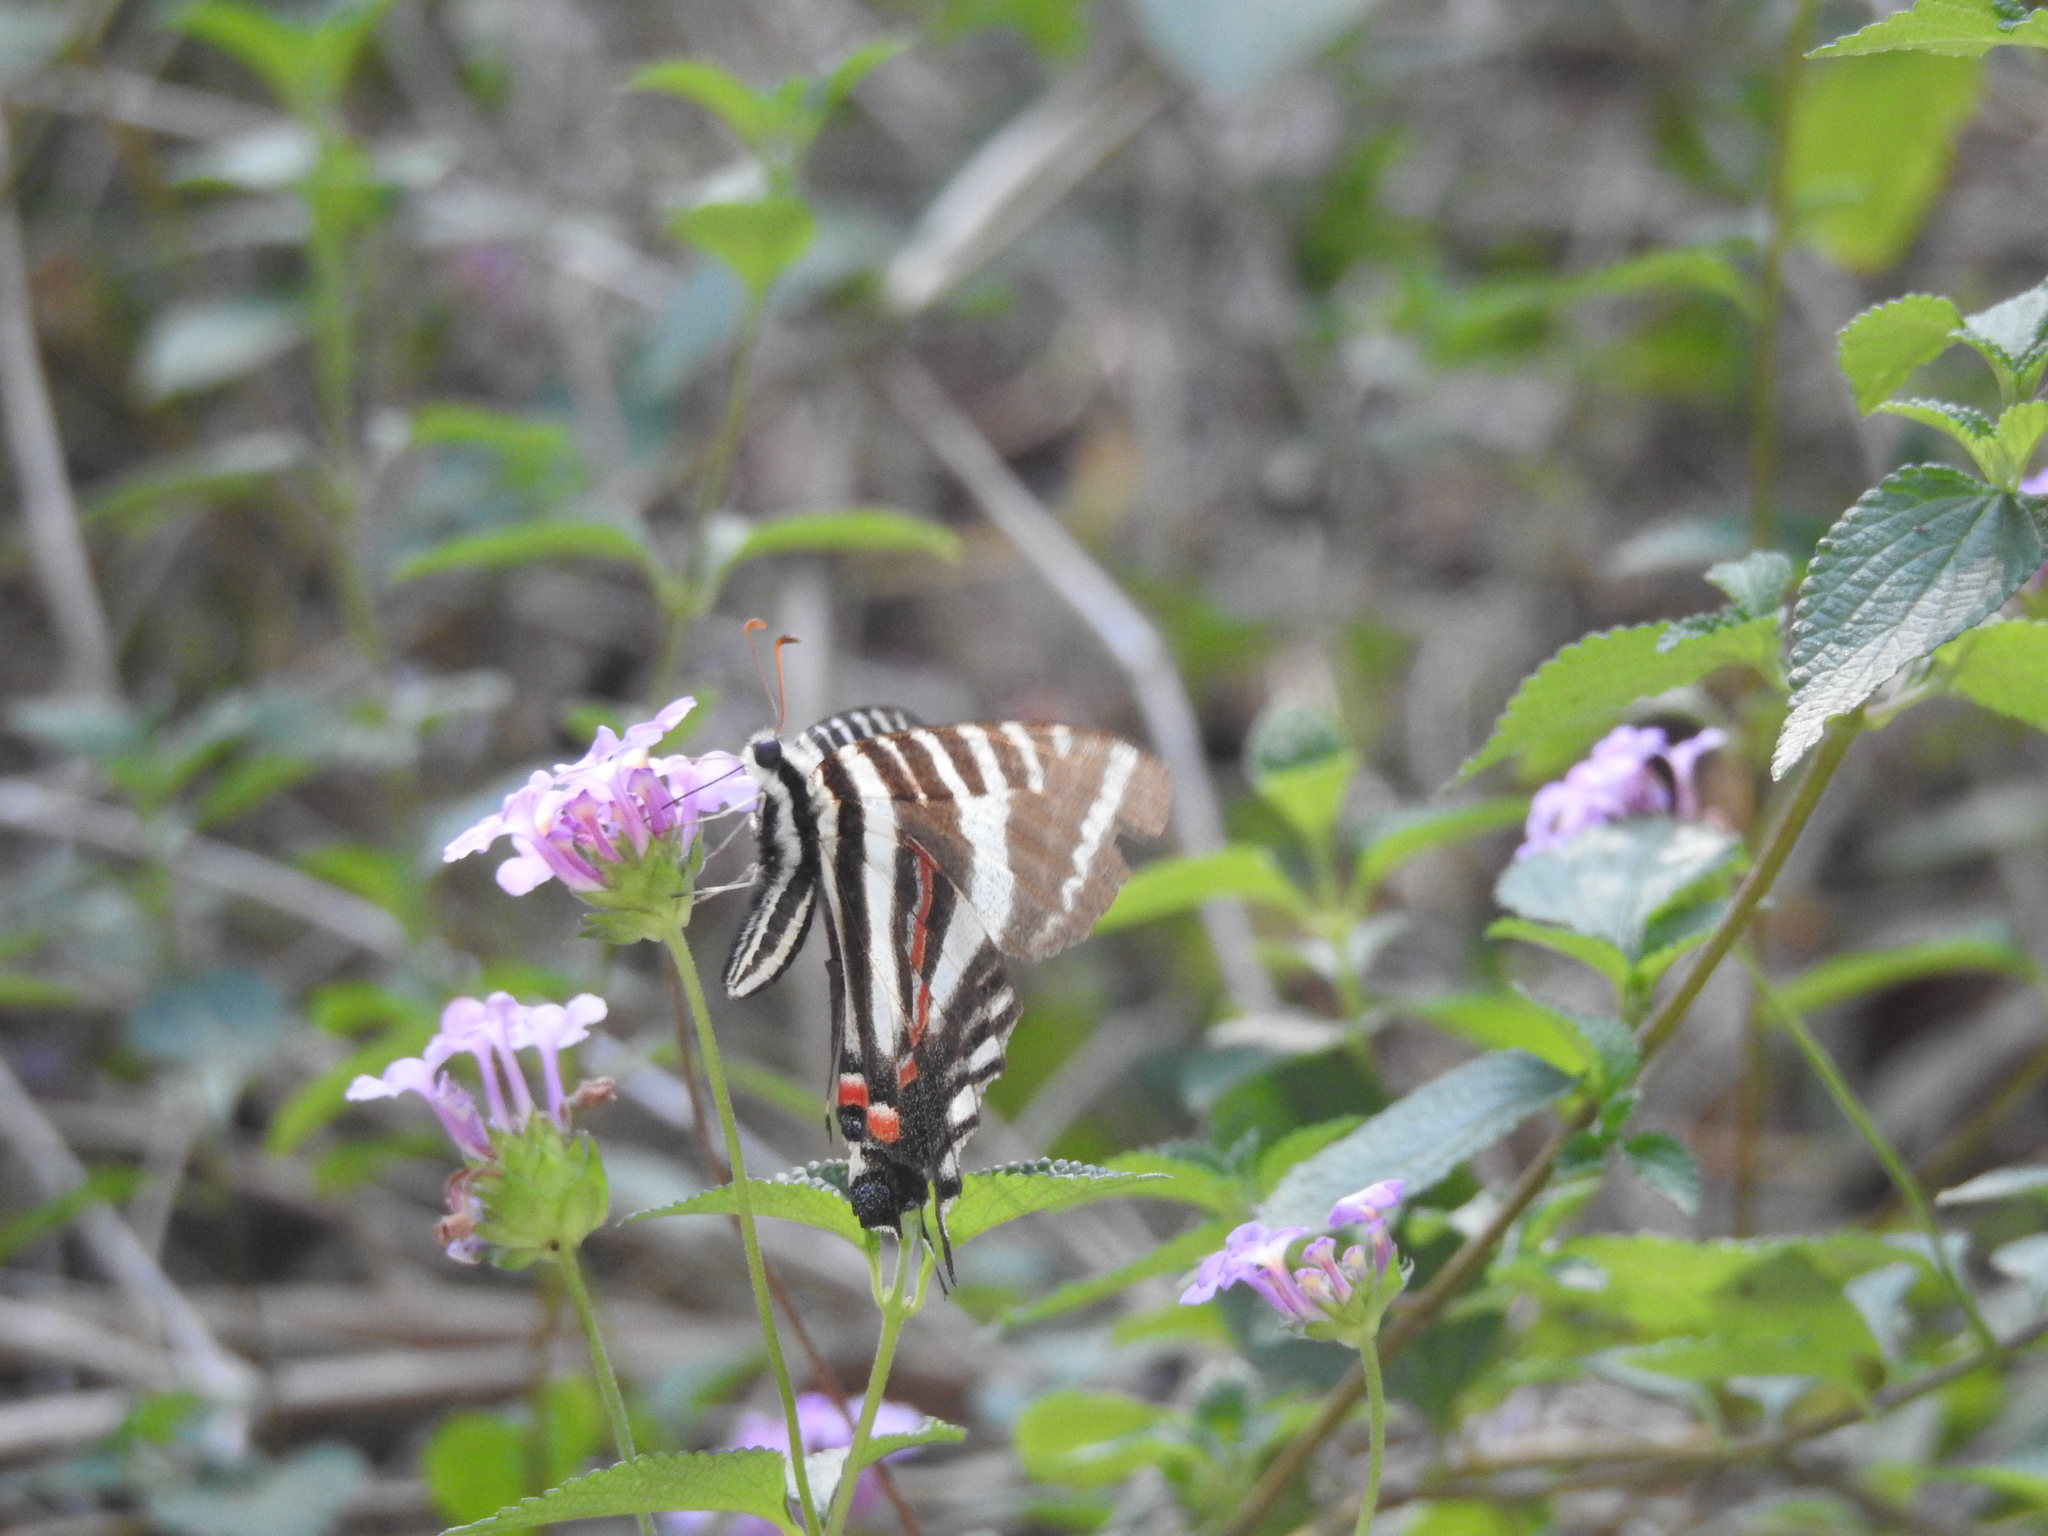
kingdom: Animalia
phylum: Arthropoda
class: Insecta
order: Lepidoptera
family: Papilionidae
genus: Protographium
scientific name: Protographium marcellus
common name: Zebra swallowtail
